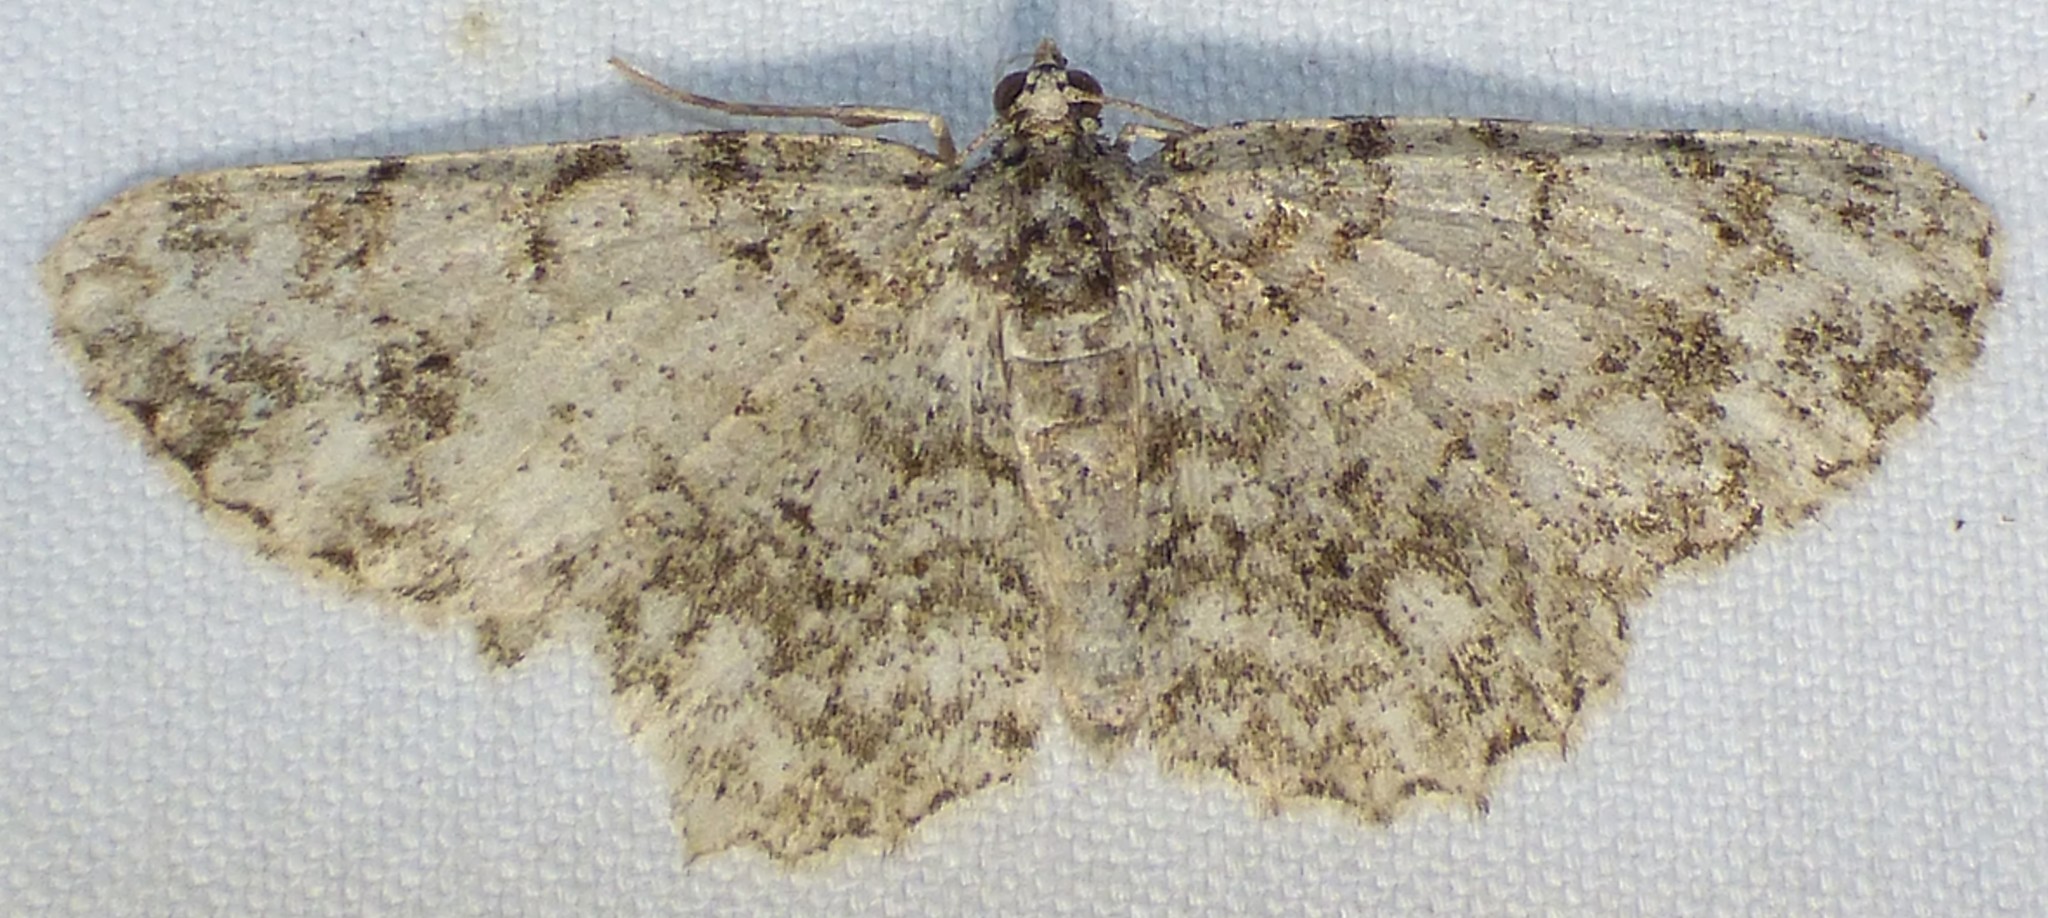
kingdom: Animalia
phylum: Arthropoda
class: Insecta
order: Lepidoptera
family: Geometridae
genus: Protoboarmia
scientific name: Protoboarmia porcelaria
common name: Porcelain gray
